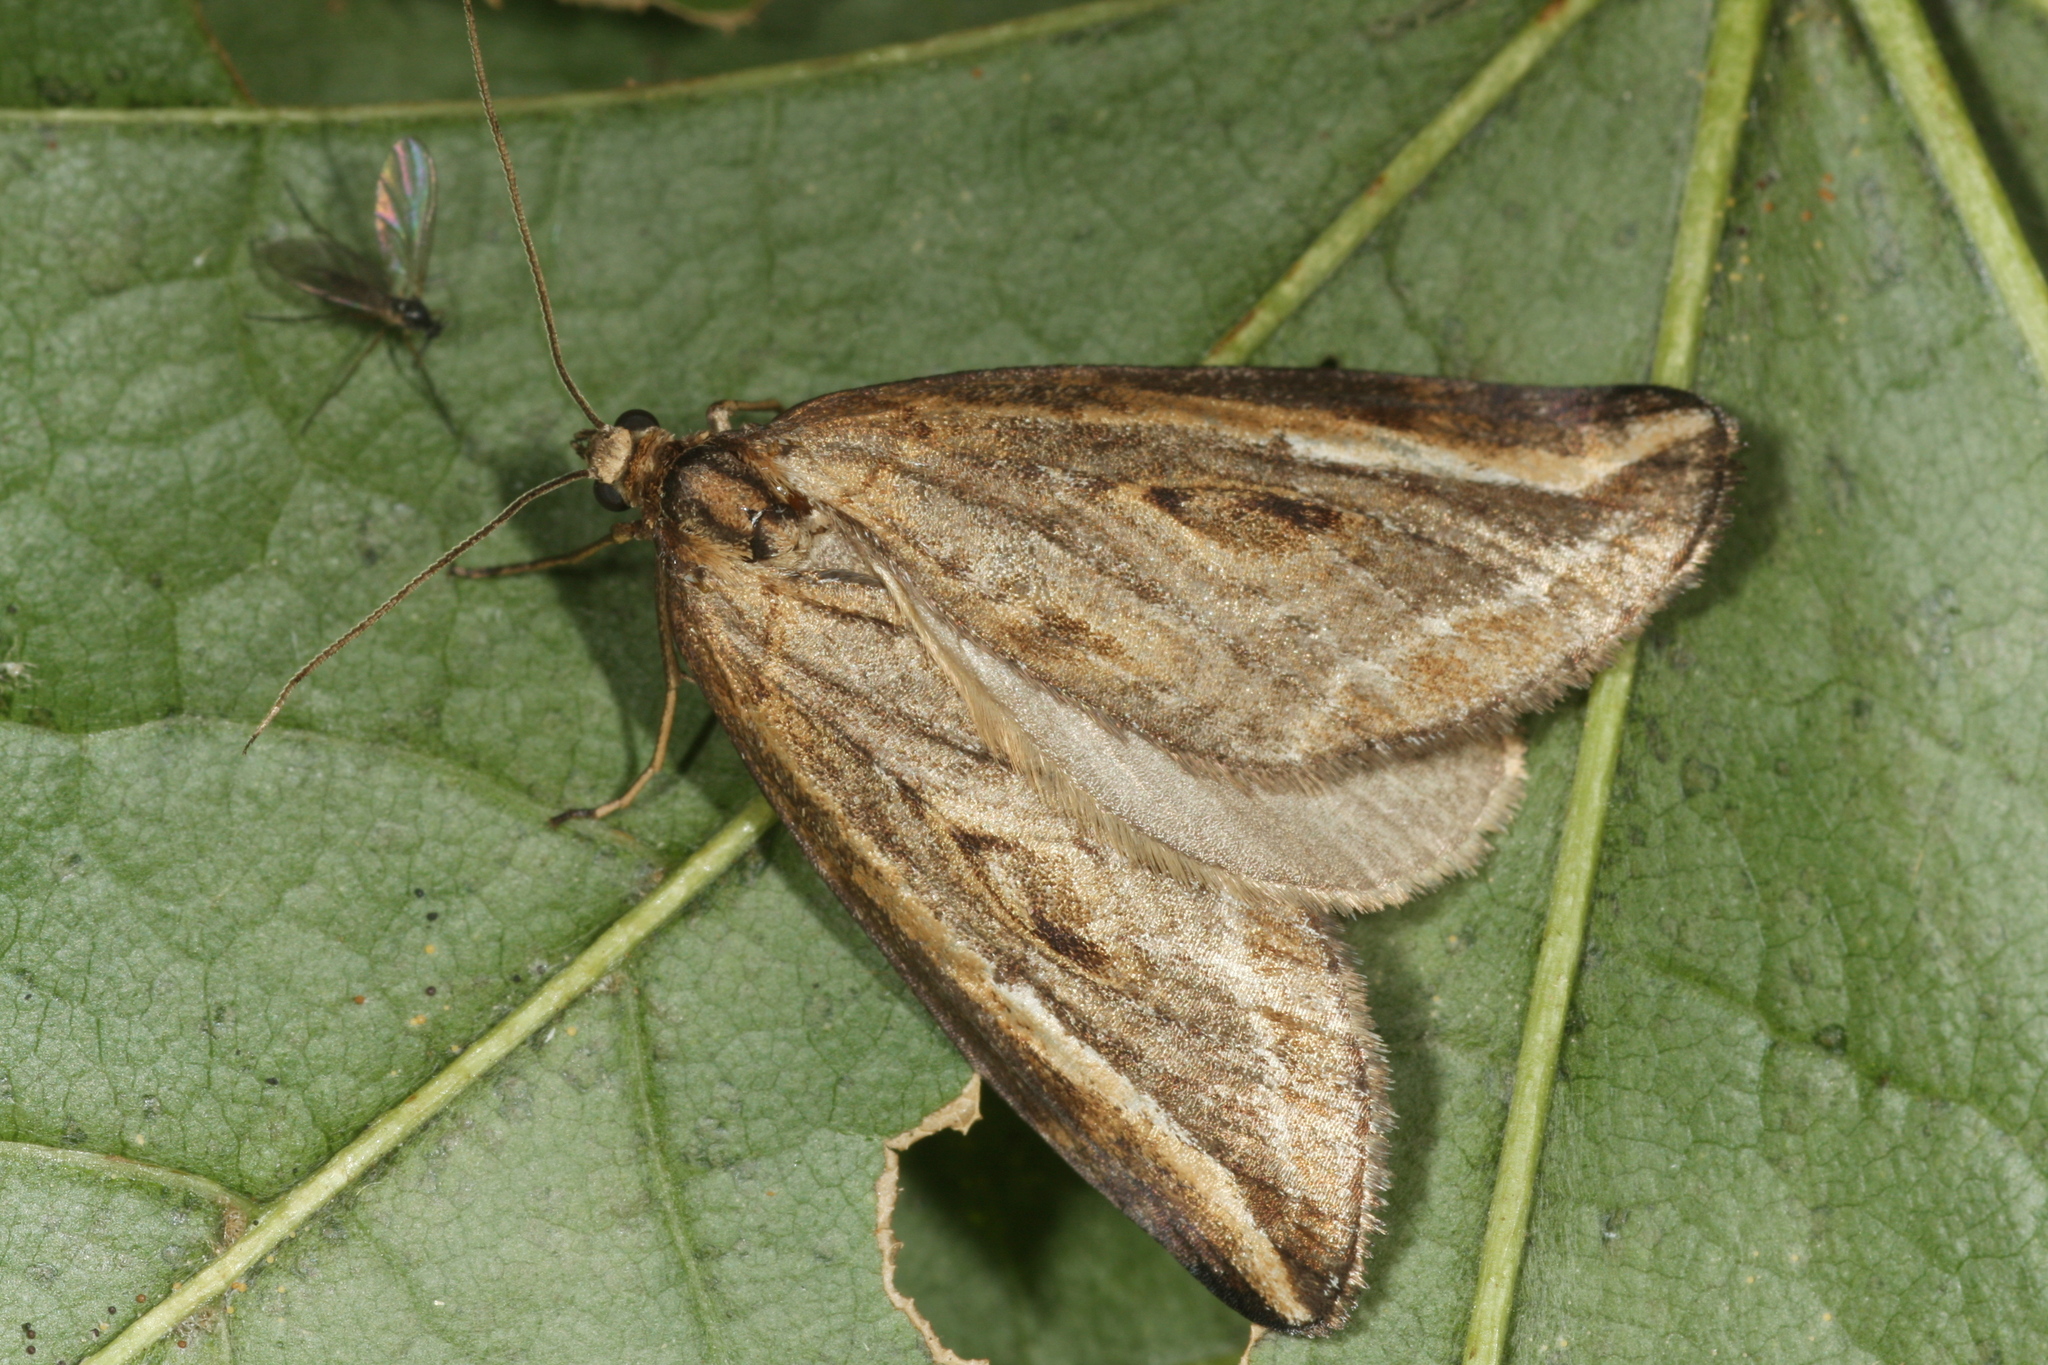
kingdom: Animalia
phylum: Arthropoda
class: Insecta
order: Lepidoptera
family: Geometridae
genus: Chesias
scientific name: Chesias legatella
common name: Streak
